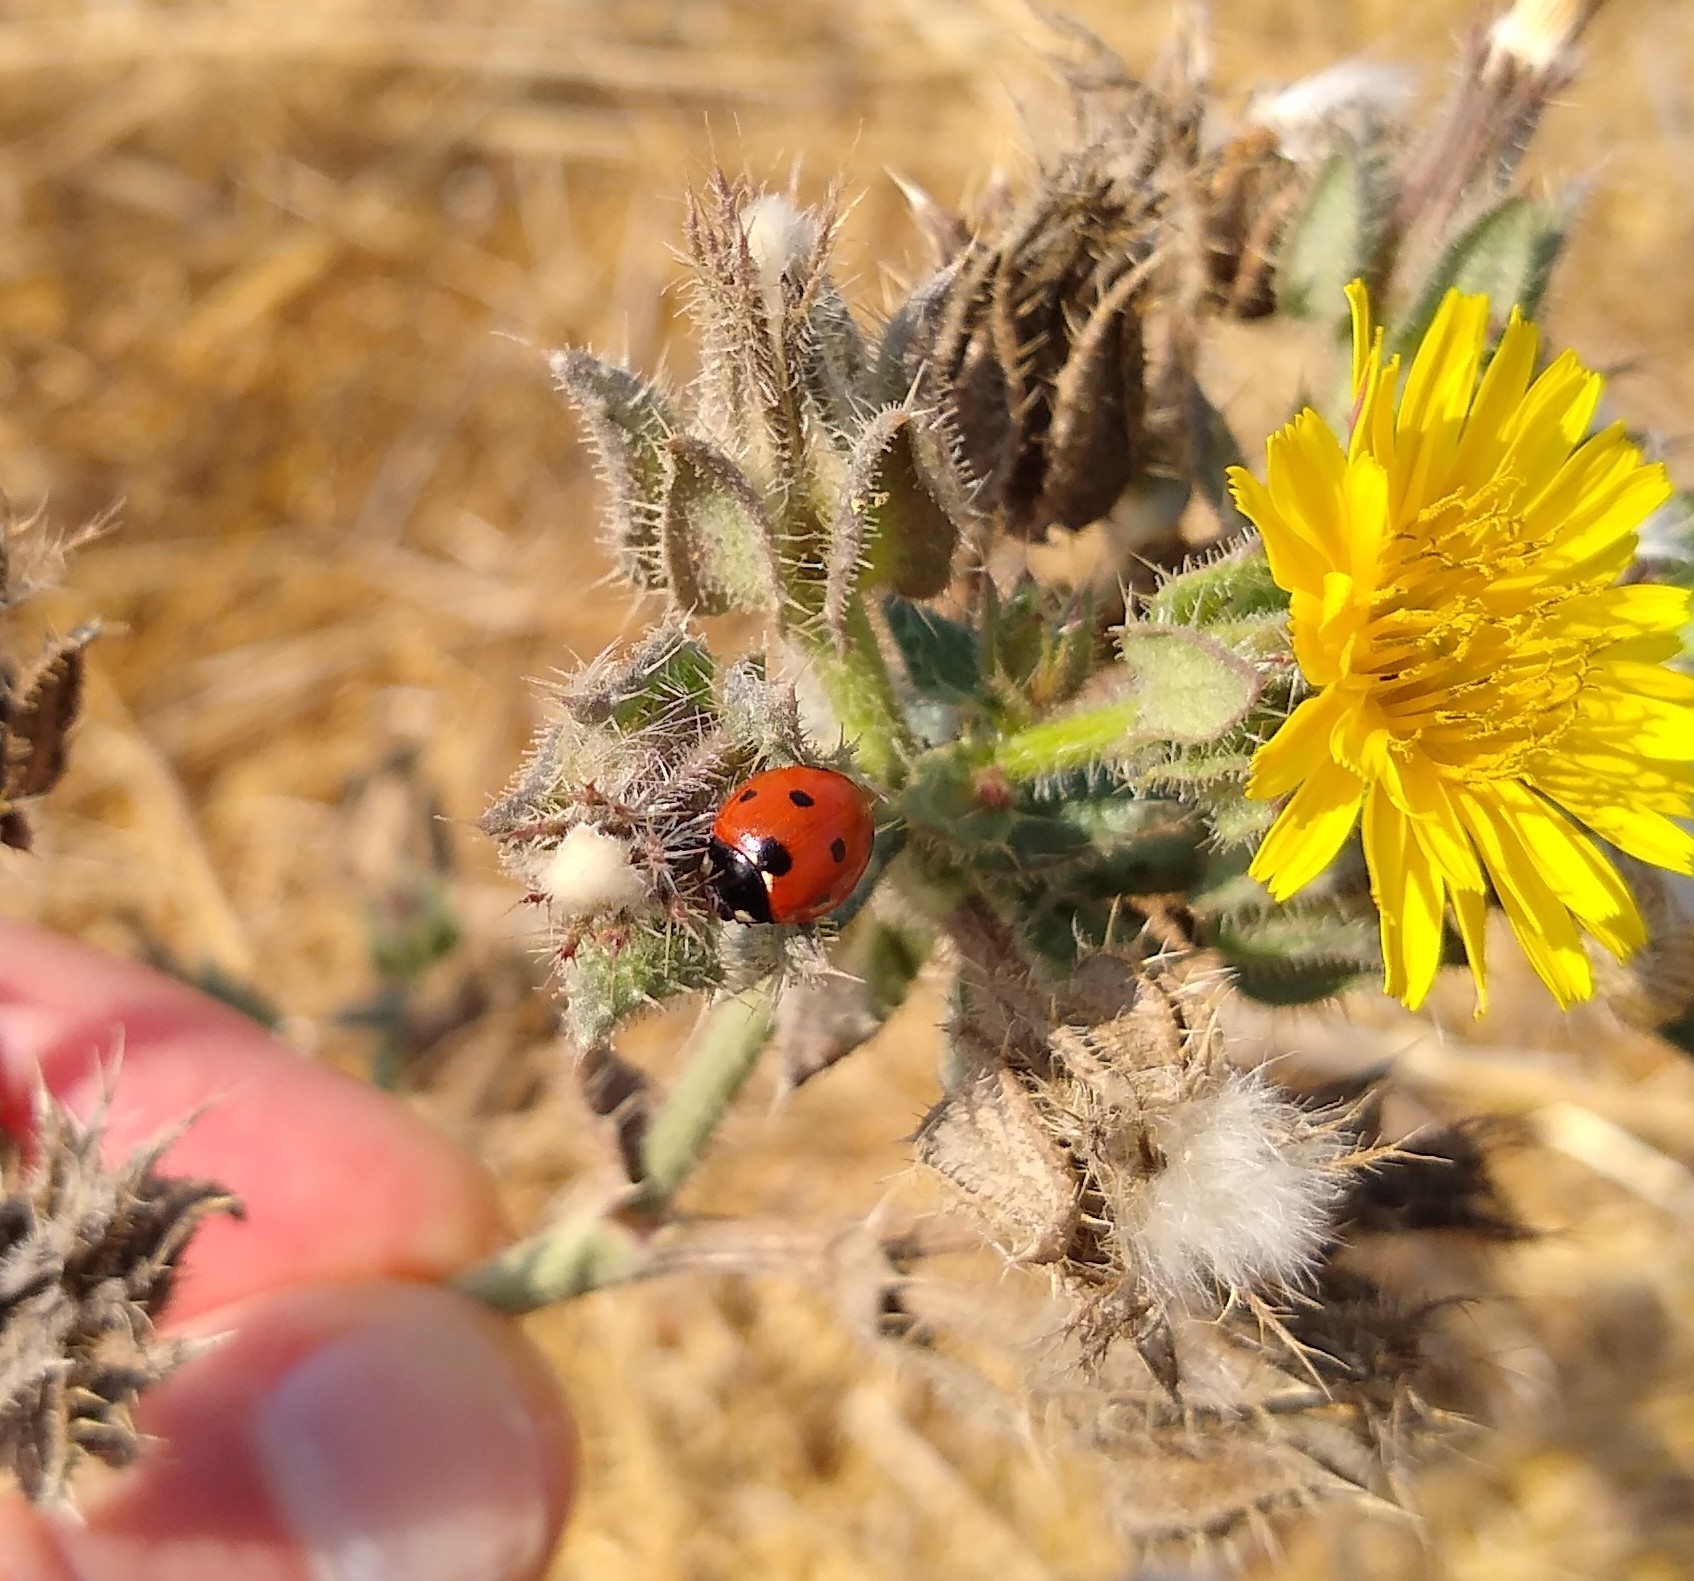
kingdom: Animalia
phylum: Arthropoda
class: Insecta
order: Coleoptera
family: Coccinellidae
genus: Coccinella
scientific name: Coccinella septempunctata
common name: Sevenspotted lady beetle
